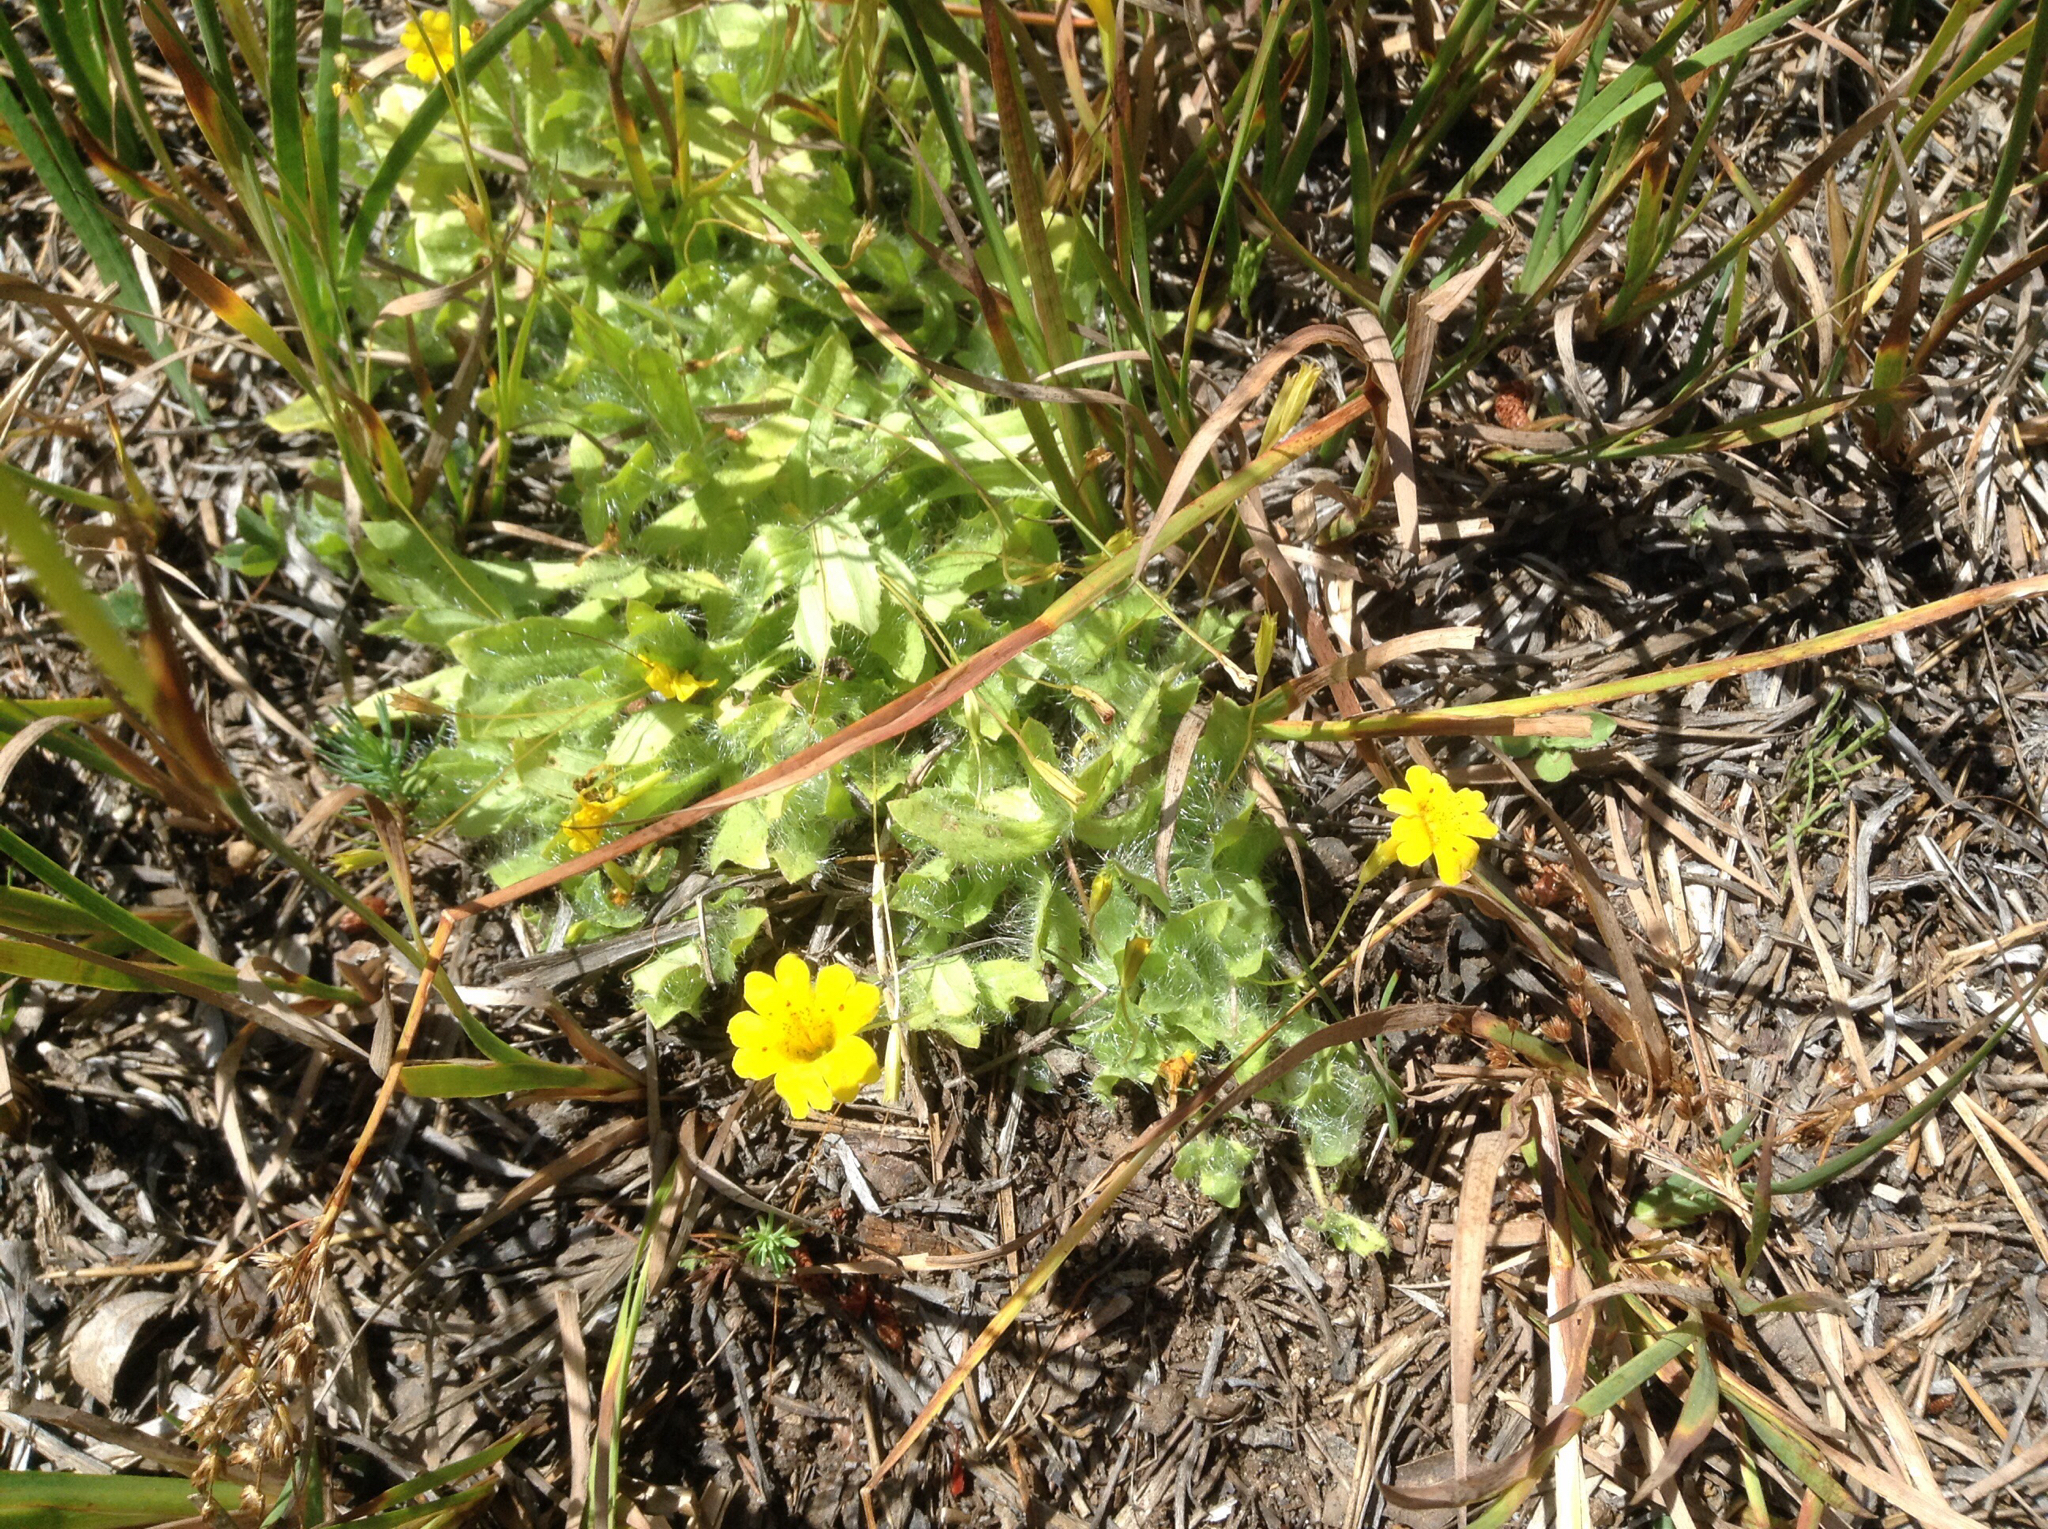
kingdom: Plantae
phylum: Tracheophyta
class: Magnoliopsida
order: Lamiales
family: Phrymaceae
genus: Erythranthe
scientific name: Erythranthe primuloides
